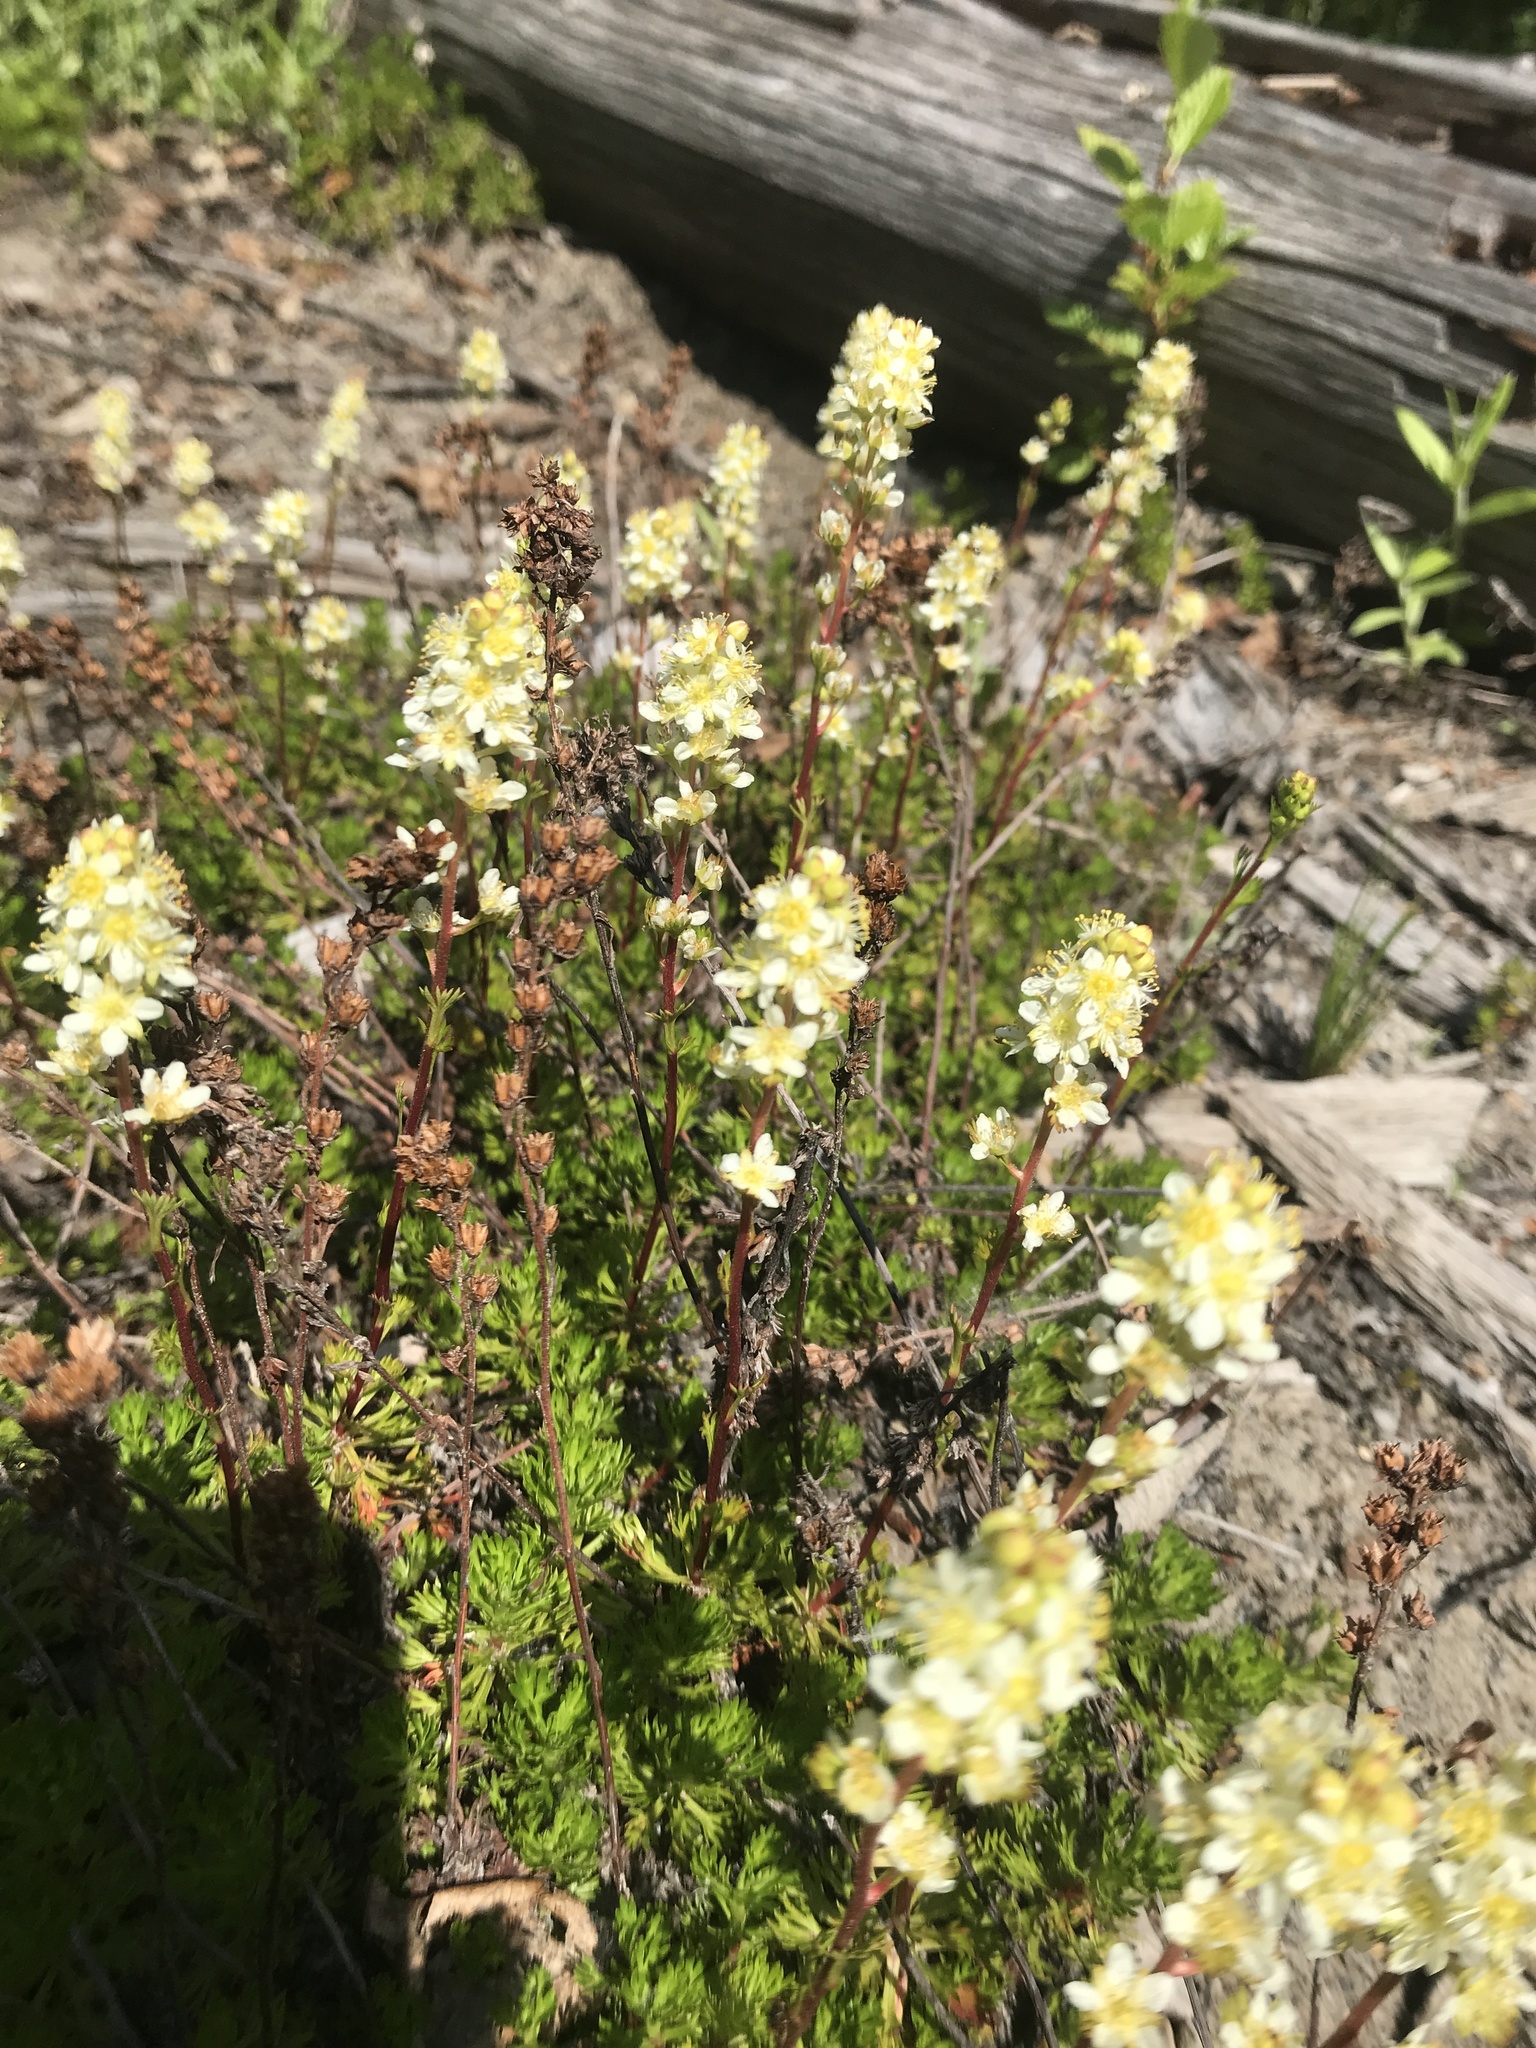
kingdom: Plantae
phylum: Tracheophyta
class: Magnoliopsida
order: Rosales
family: Rosaceae
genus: Luetkea
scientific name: Luetkea pectinata
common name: Partridgefoot
